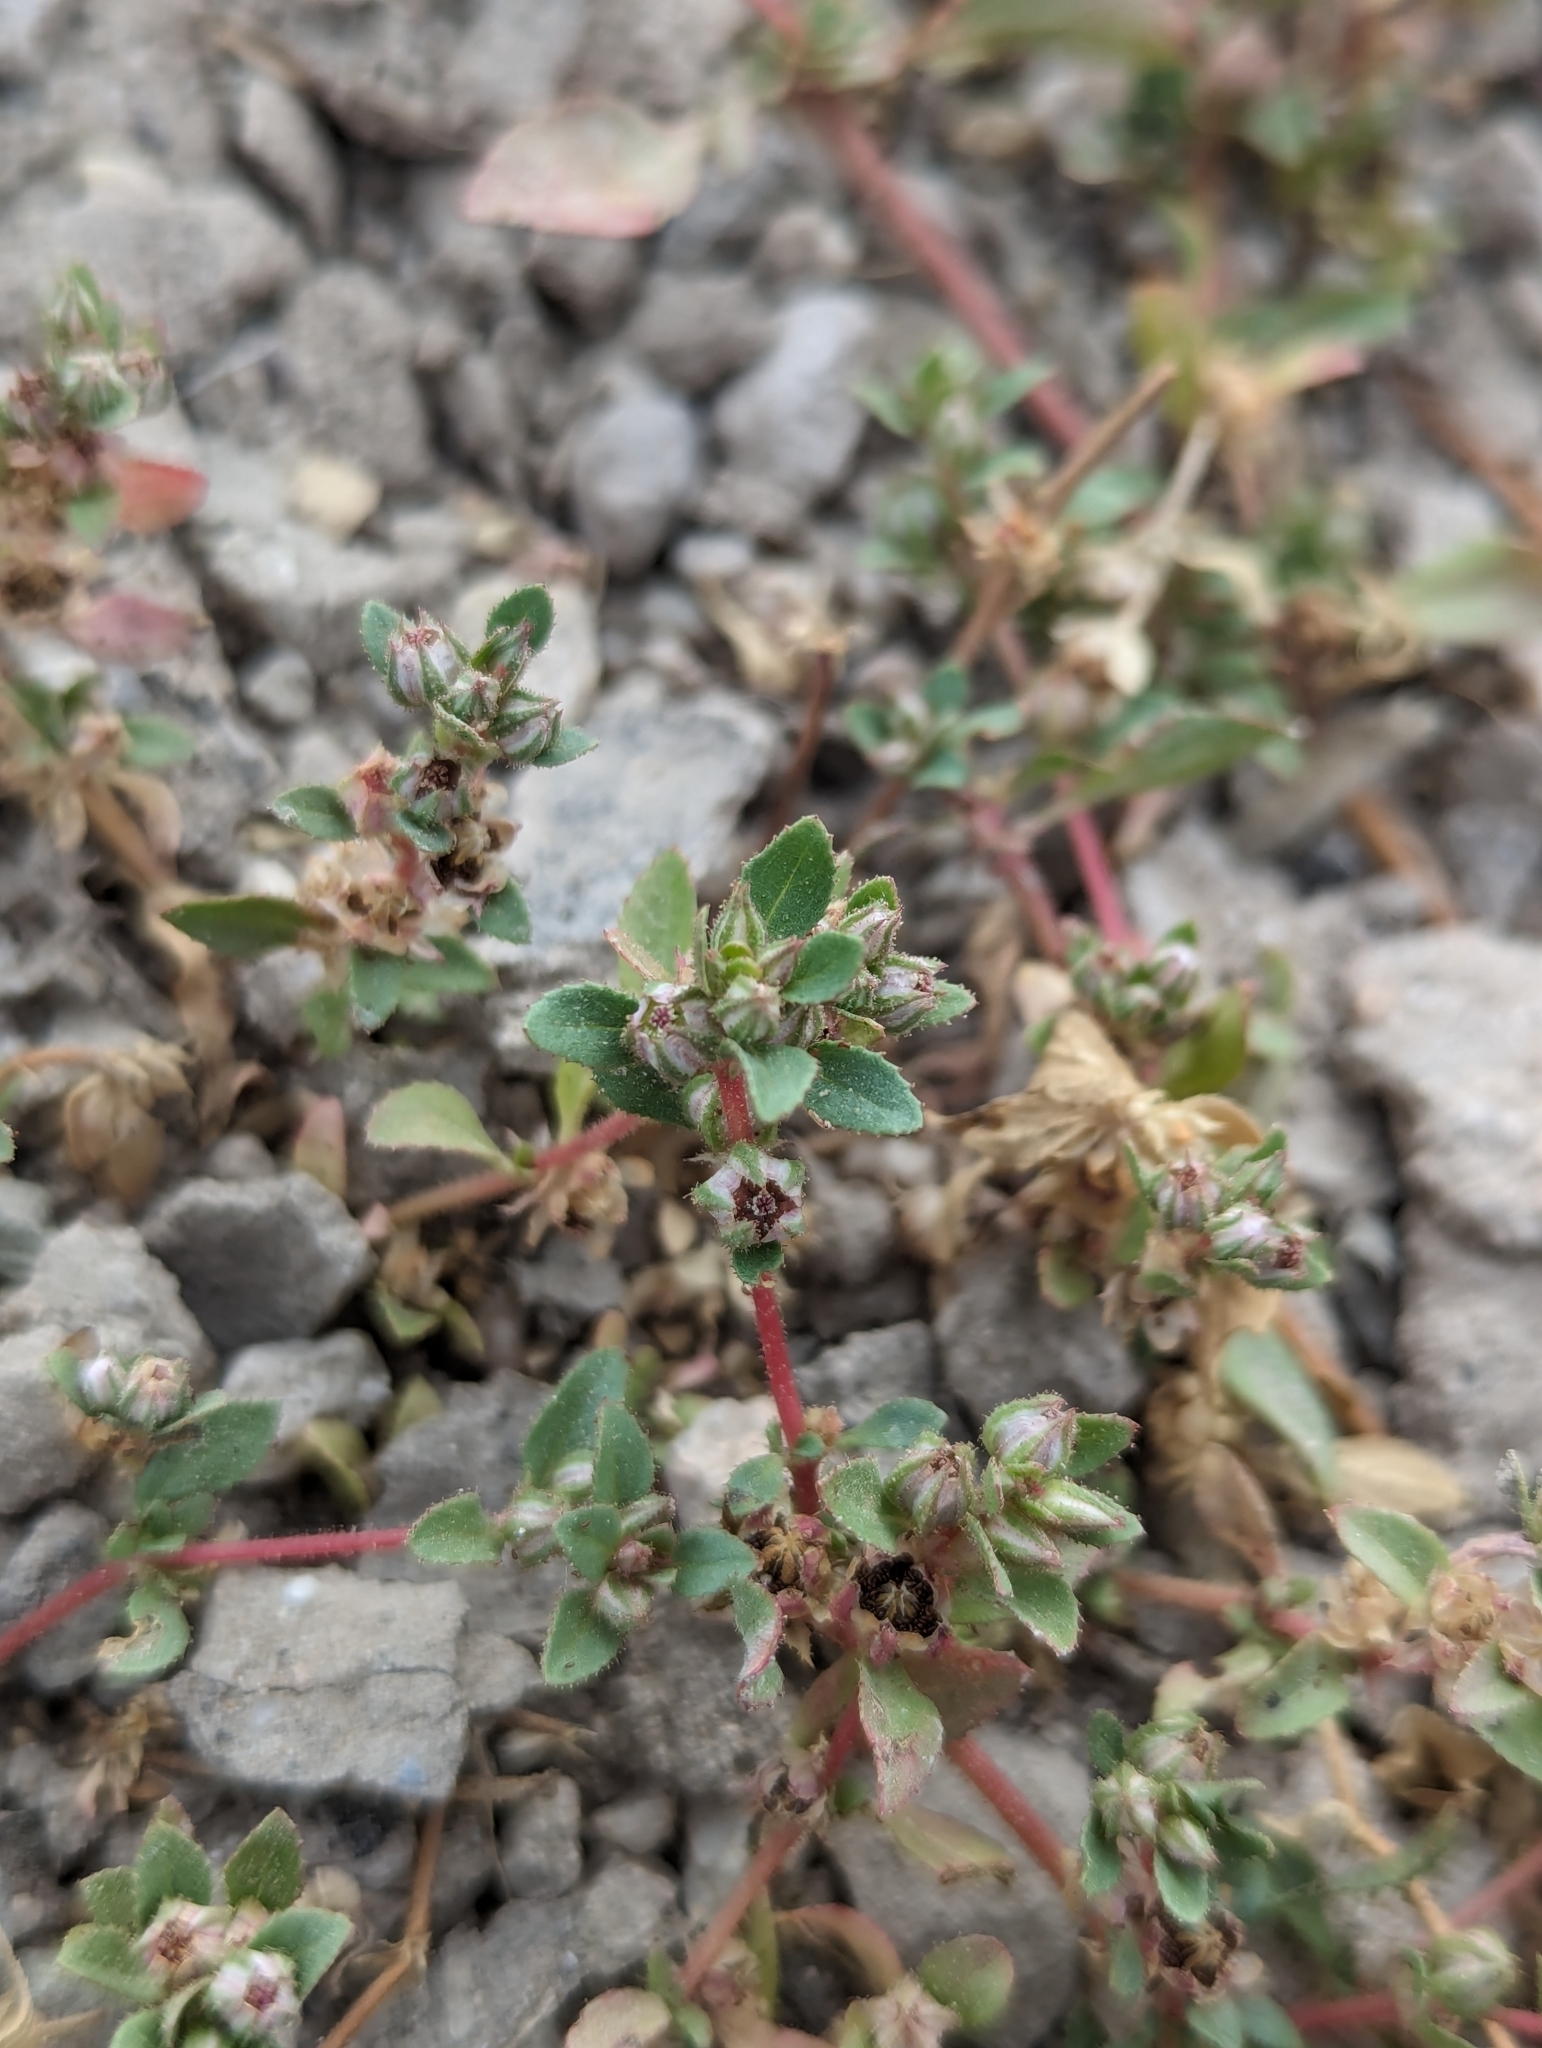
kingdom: Plantae
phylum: Tracheophyta
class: Magnoliopsida
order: Malpighiales
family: Elatinaceae
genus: Bergia
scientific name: Bergia texana
